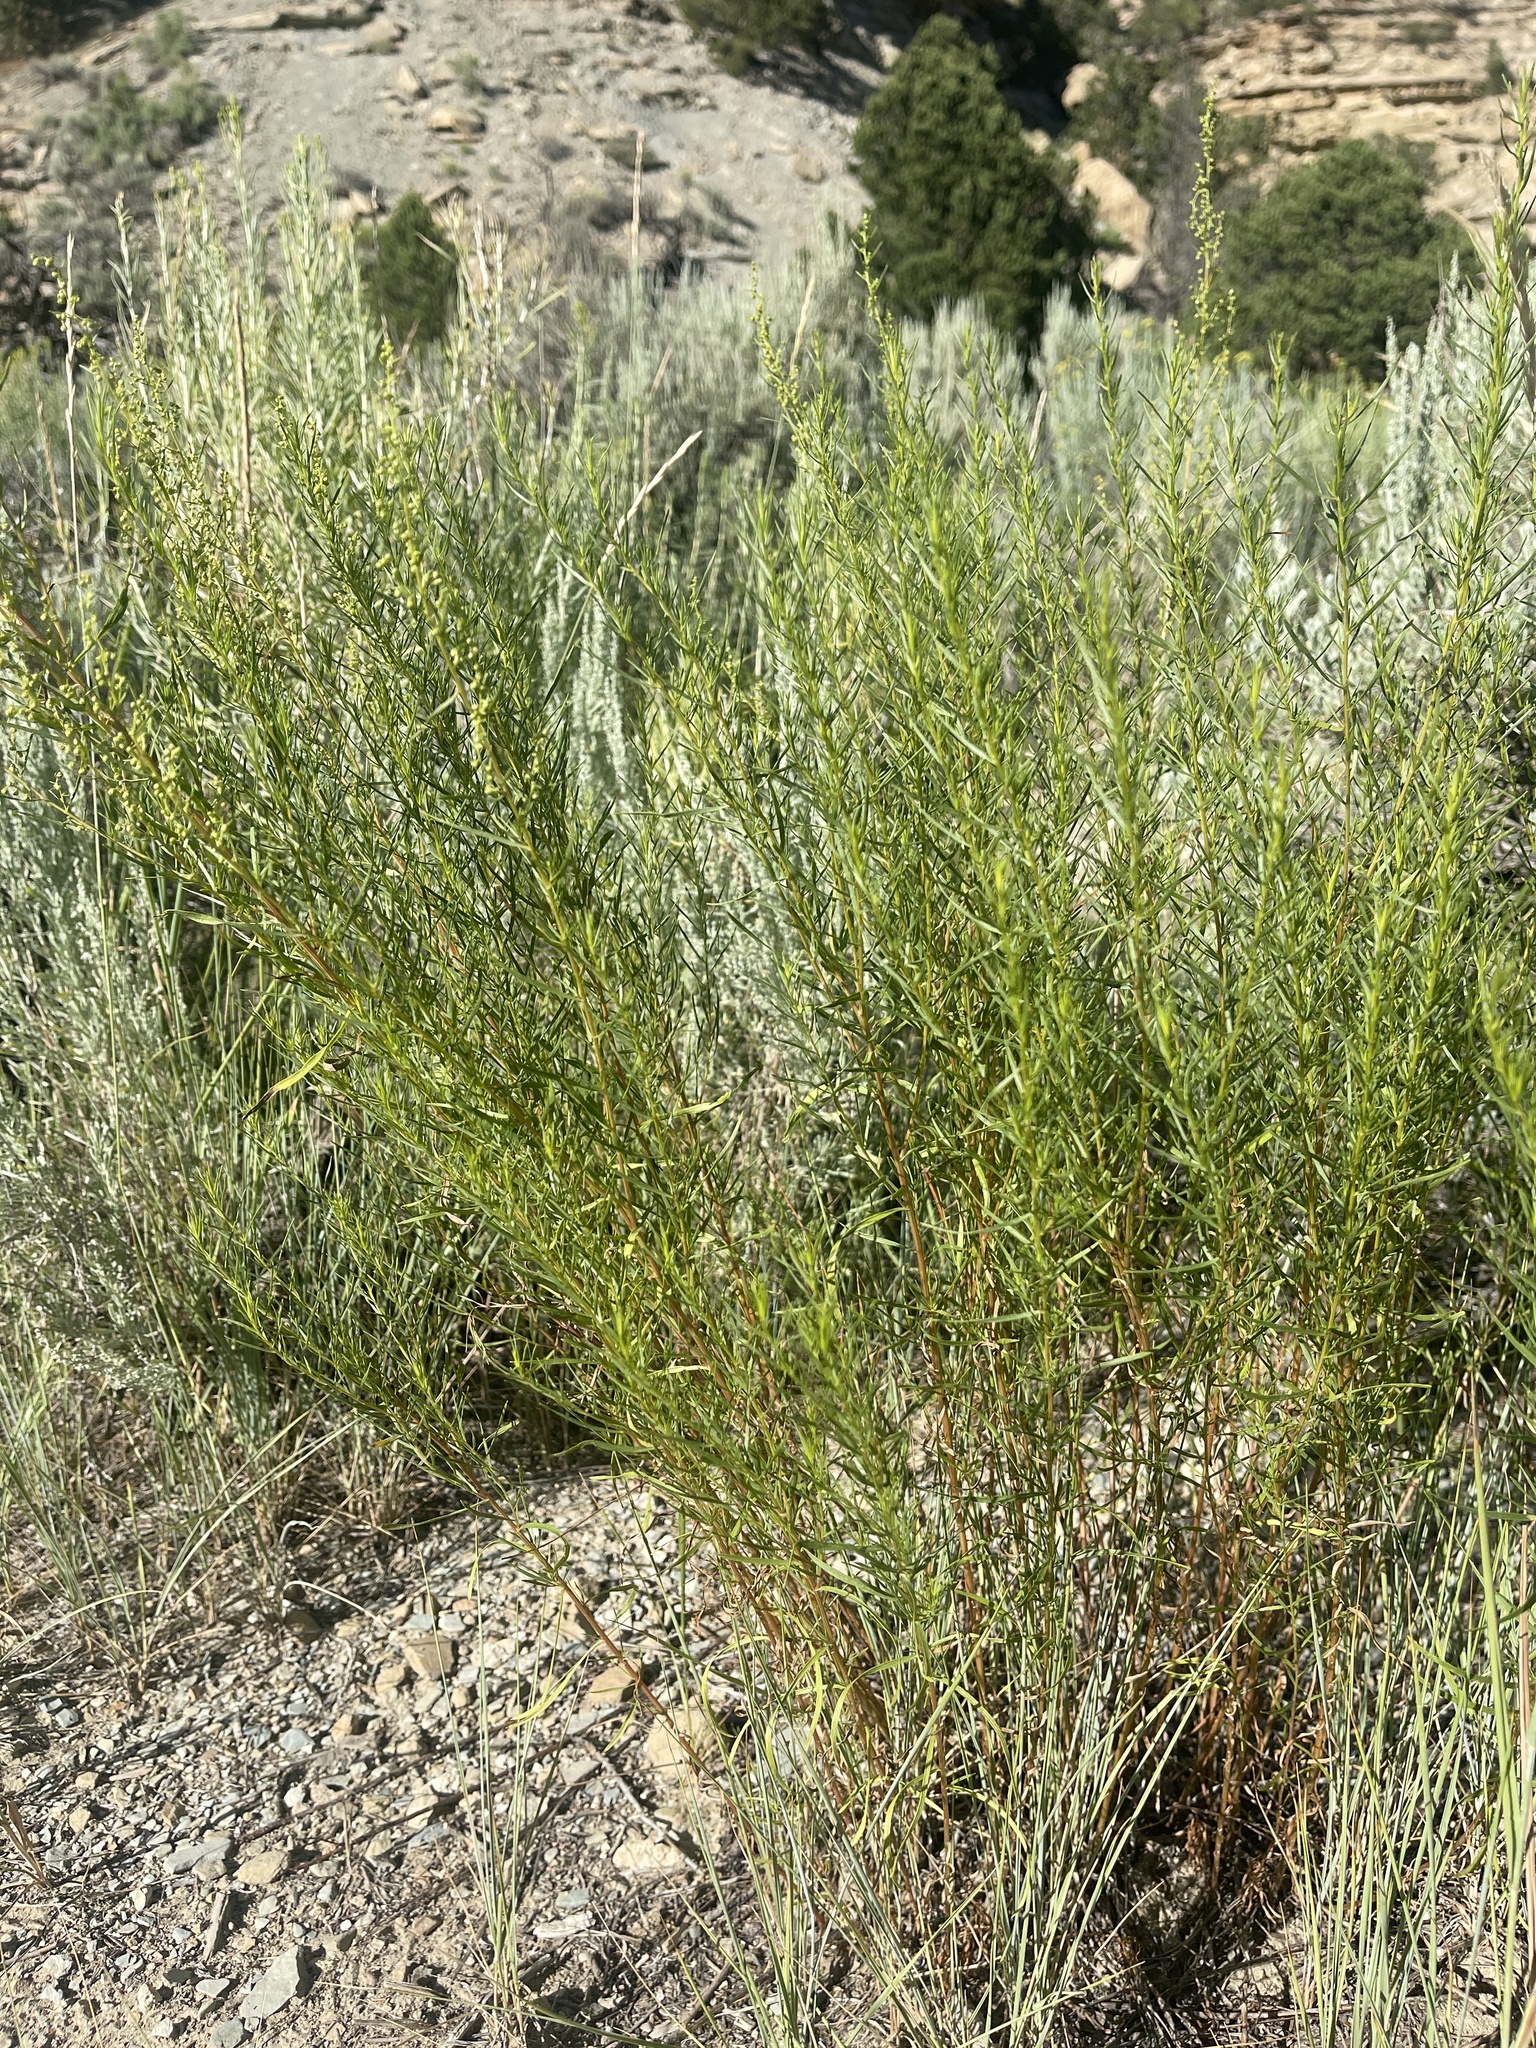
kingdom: Plantae
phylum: Tracheophyta
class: Magnoliopsida
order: Asterales
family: Asteraceae
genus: Artemisia
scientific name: Artemisia dracunculus
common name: Tarragon
